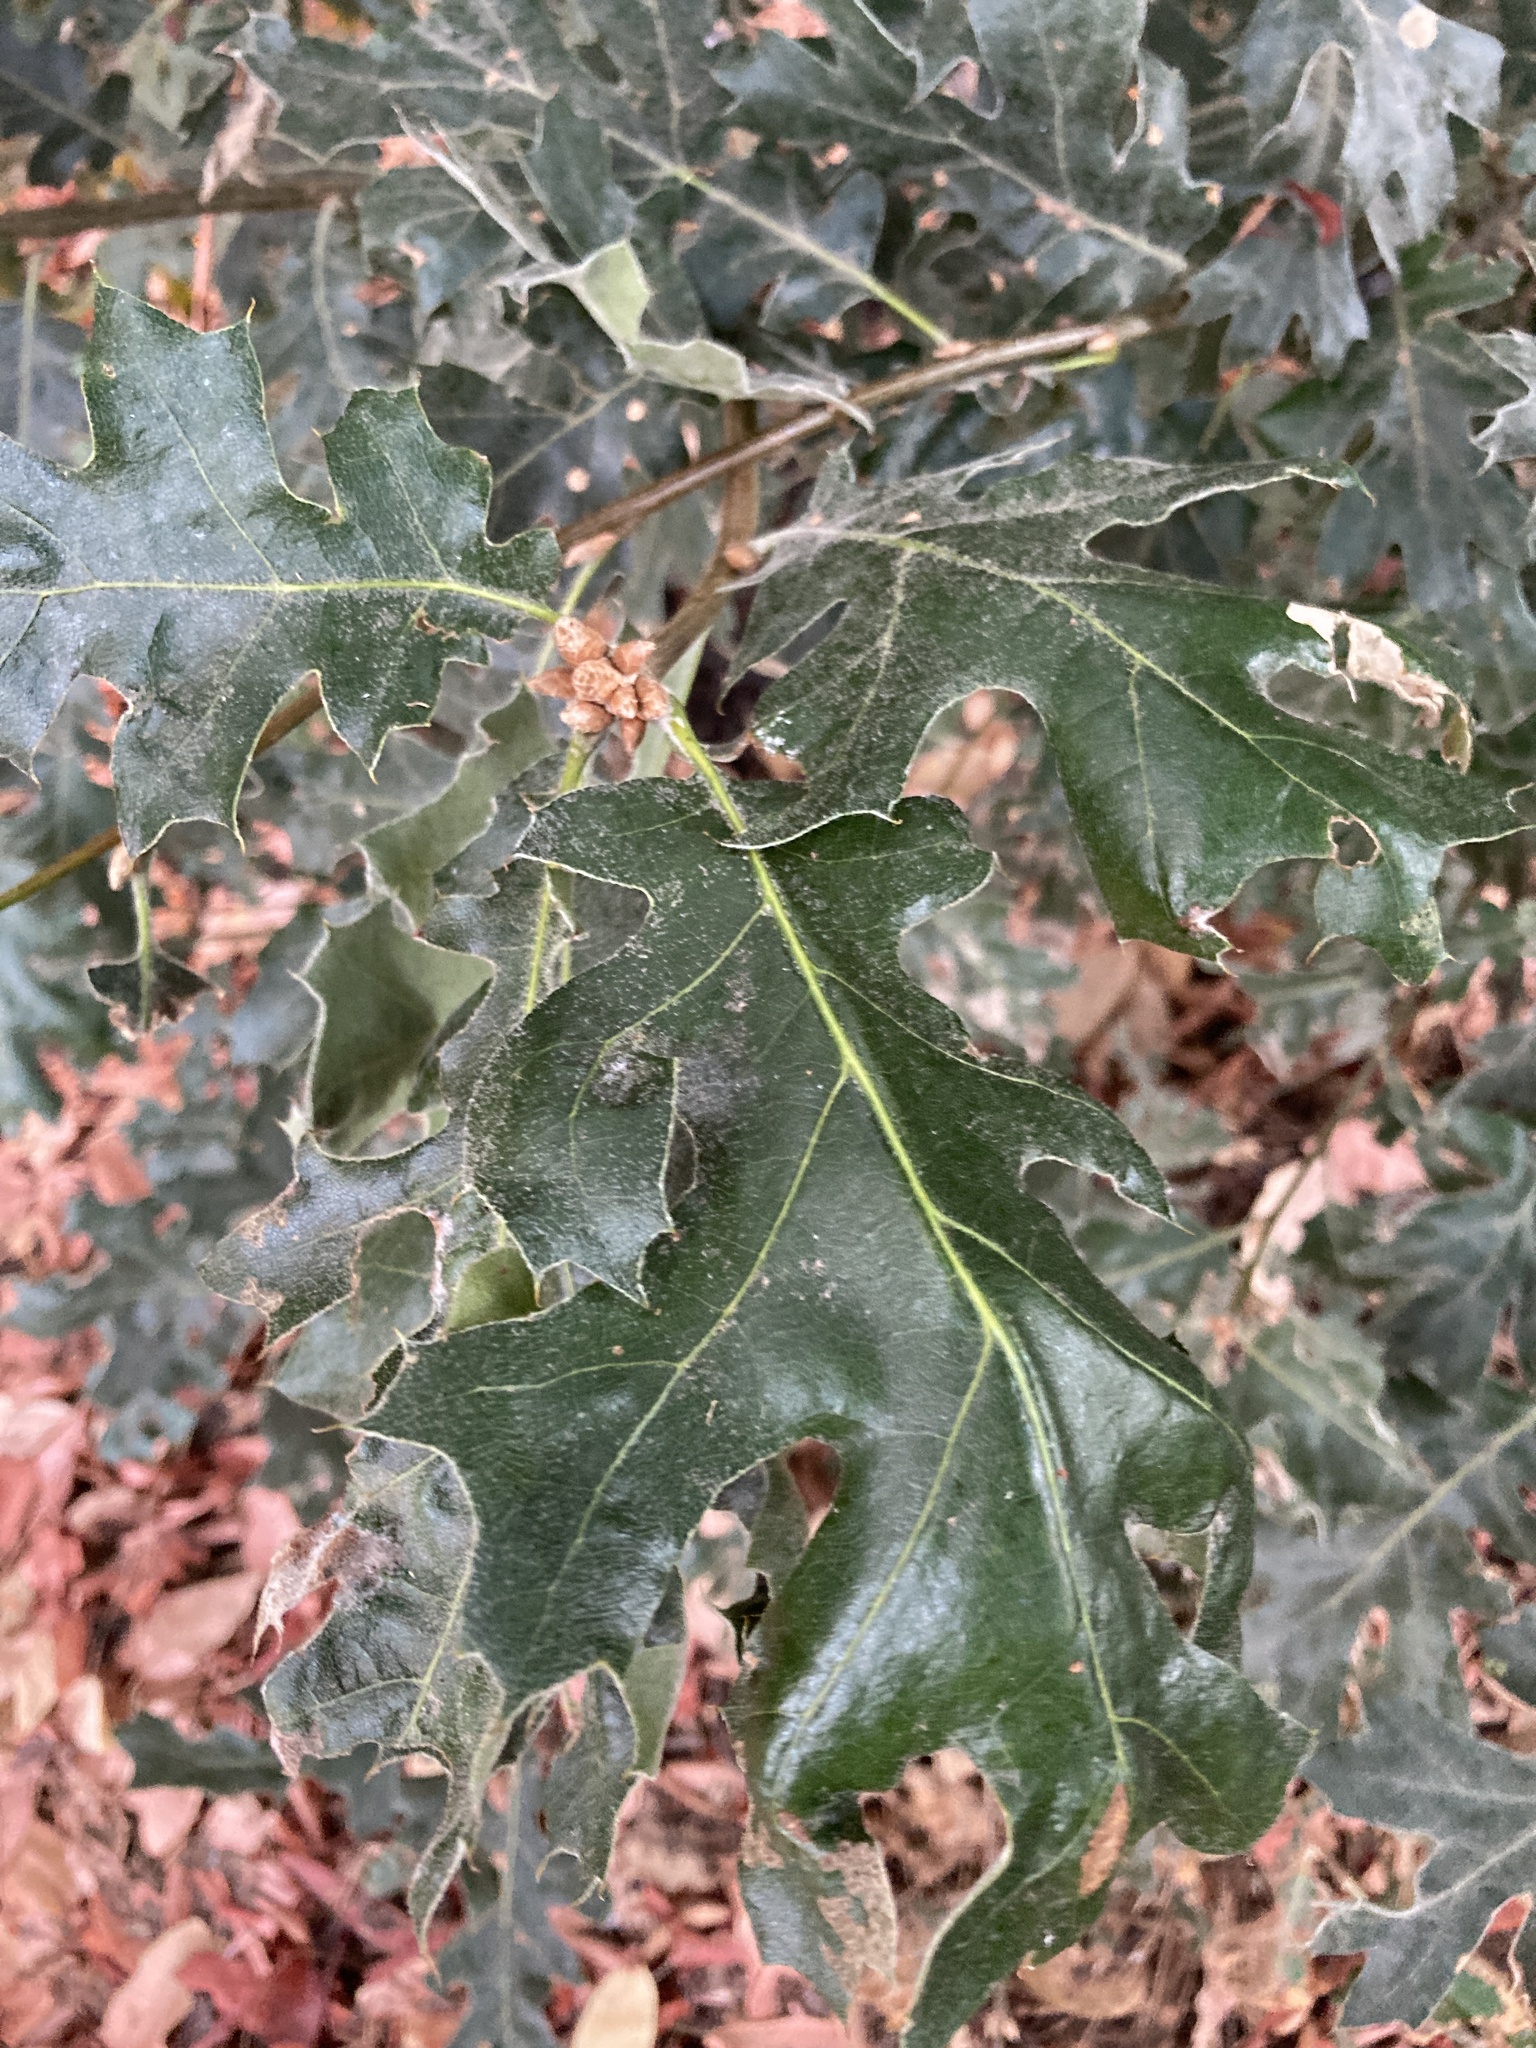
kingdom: Plantae
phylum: Tracheophyta
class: Magnoliopsida
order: Fagales
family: Fagaceae
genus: Quercus
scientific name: Quercus kelloggii
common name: California black oak
